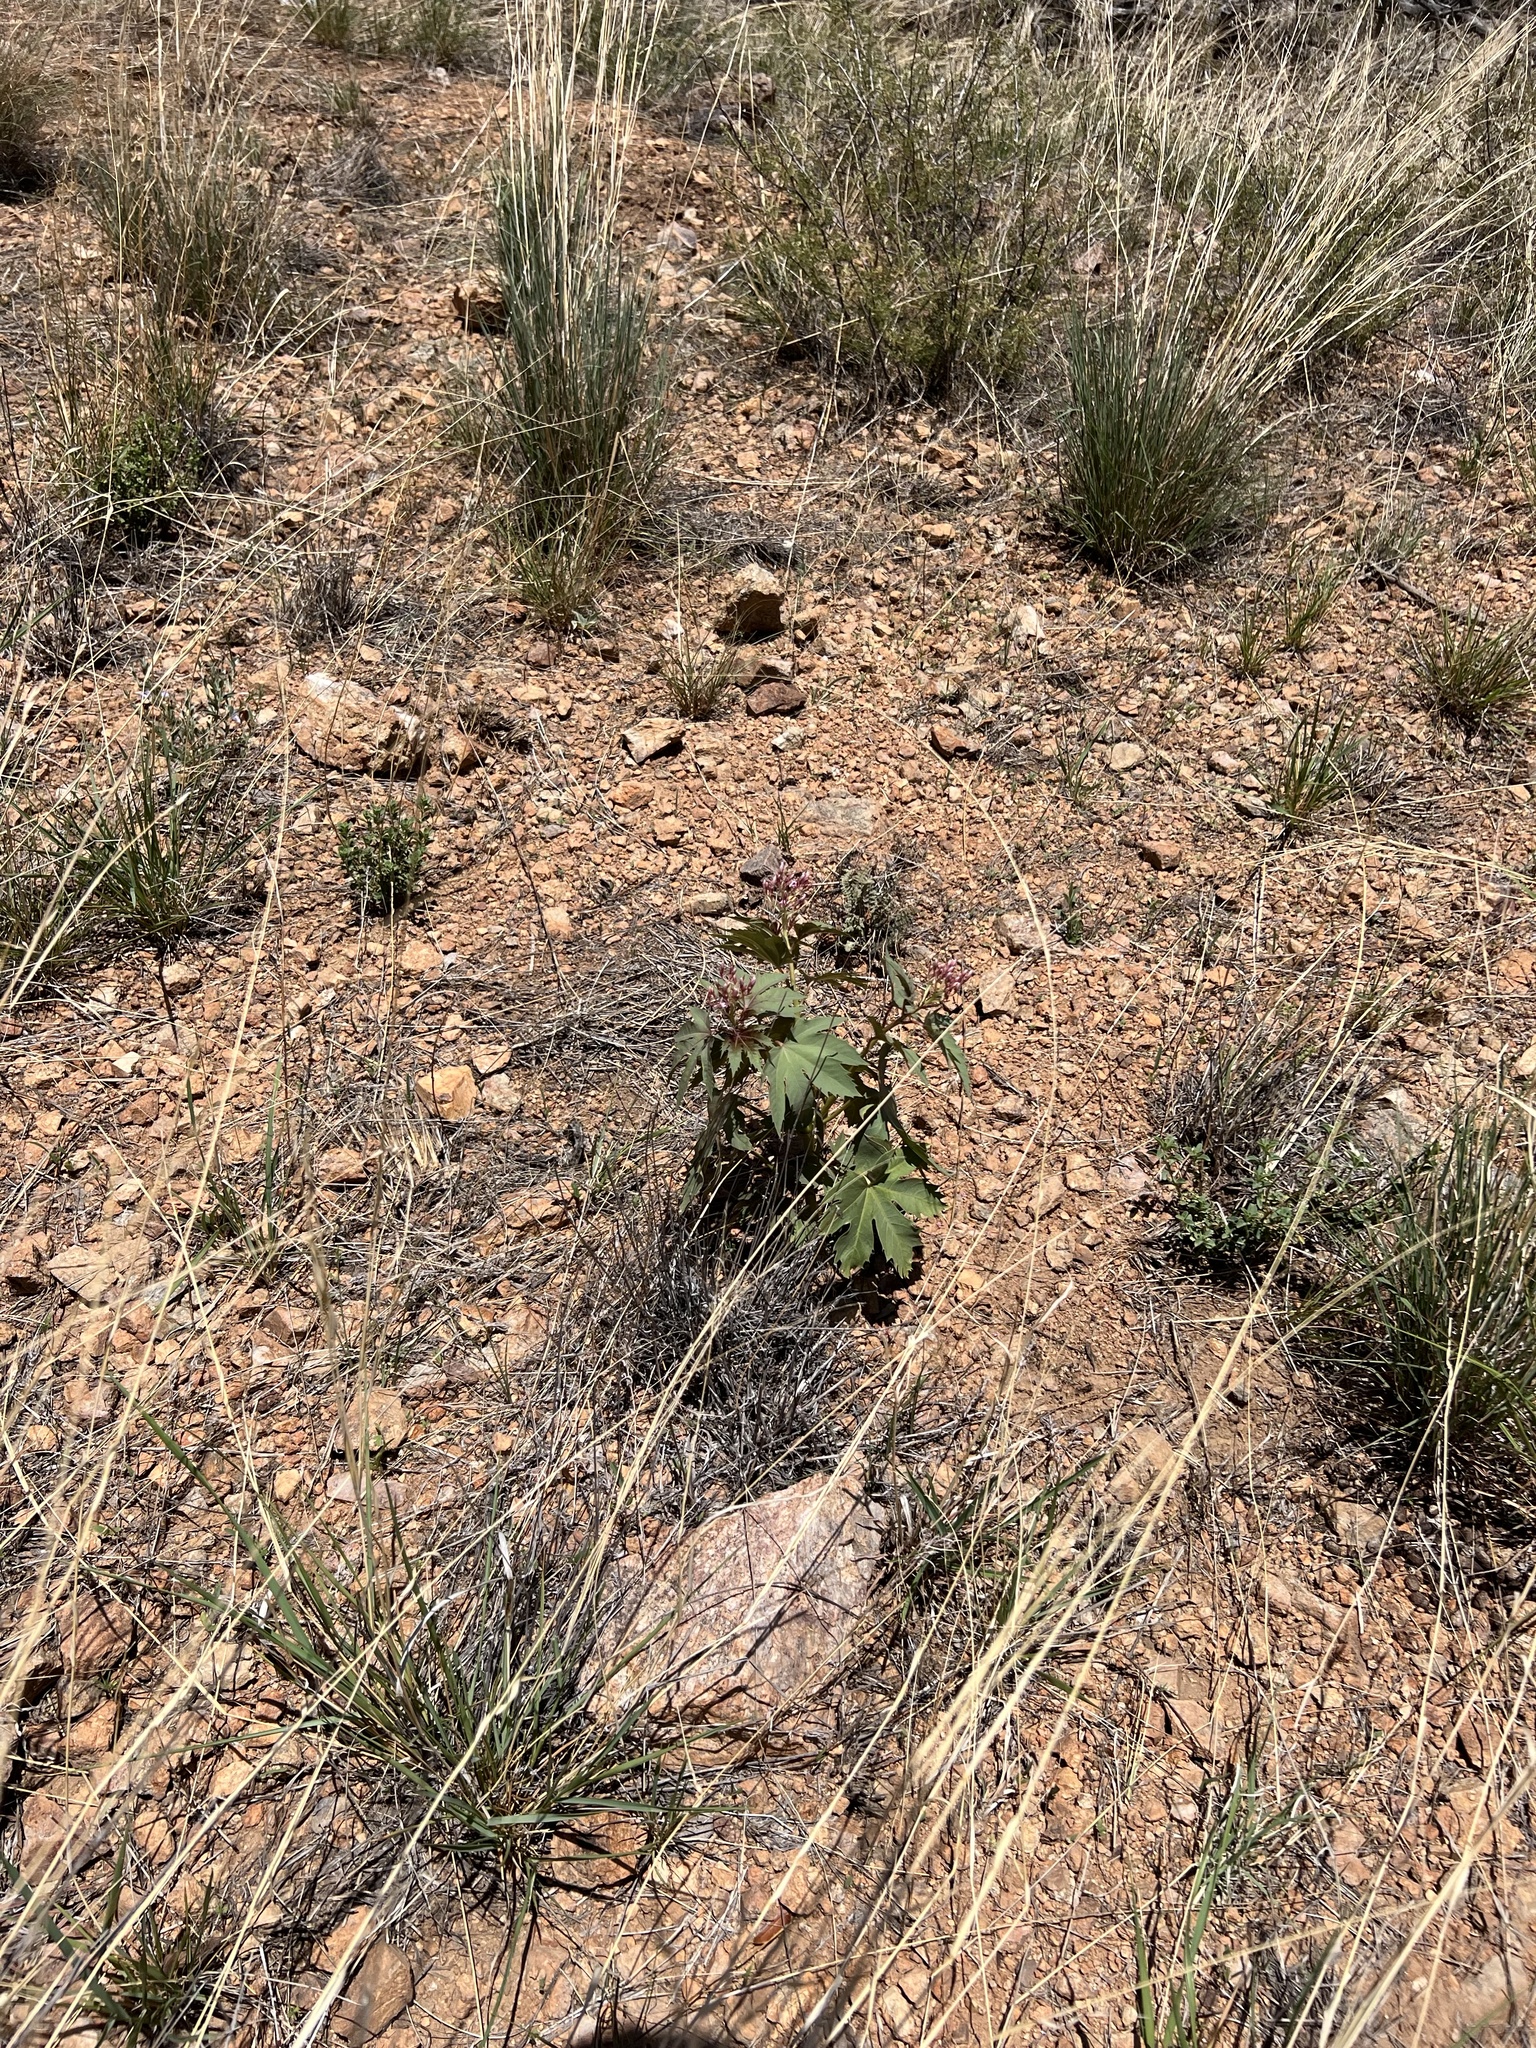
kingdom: Plantae
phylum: Tracheophyta
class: Magnoliopsida
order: Malpighiales
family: Euphorbiaceae
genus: Jatropha
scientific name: Jatropha macrorhiza
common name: Ragged nettlespurge
